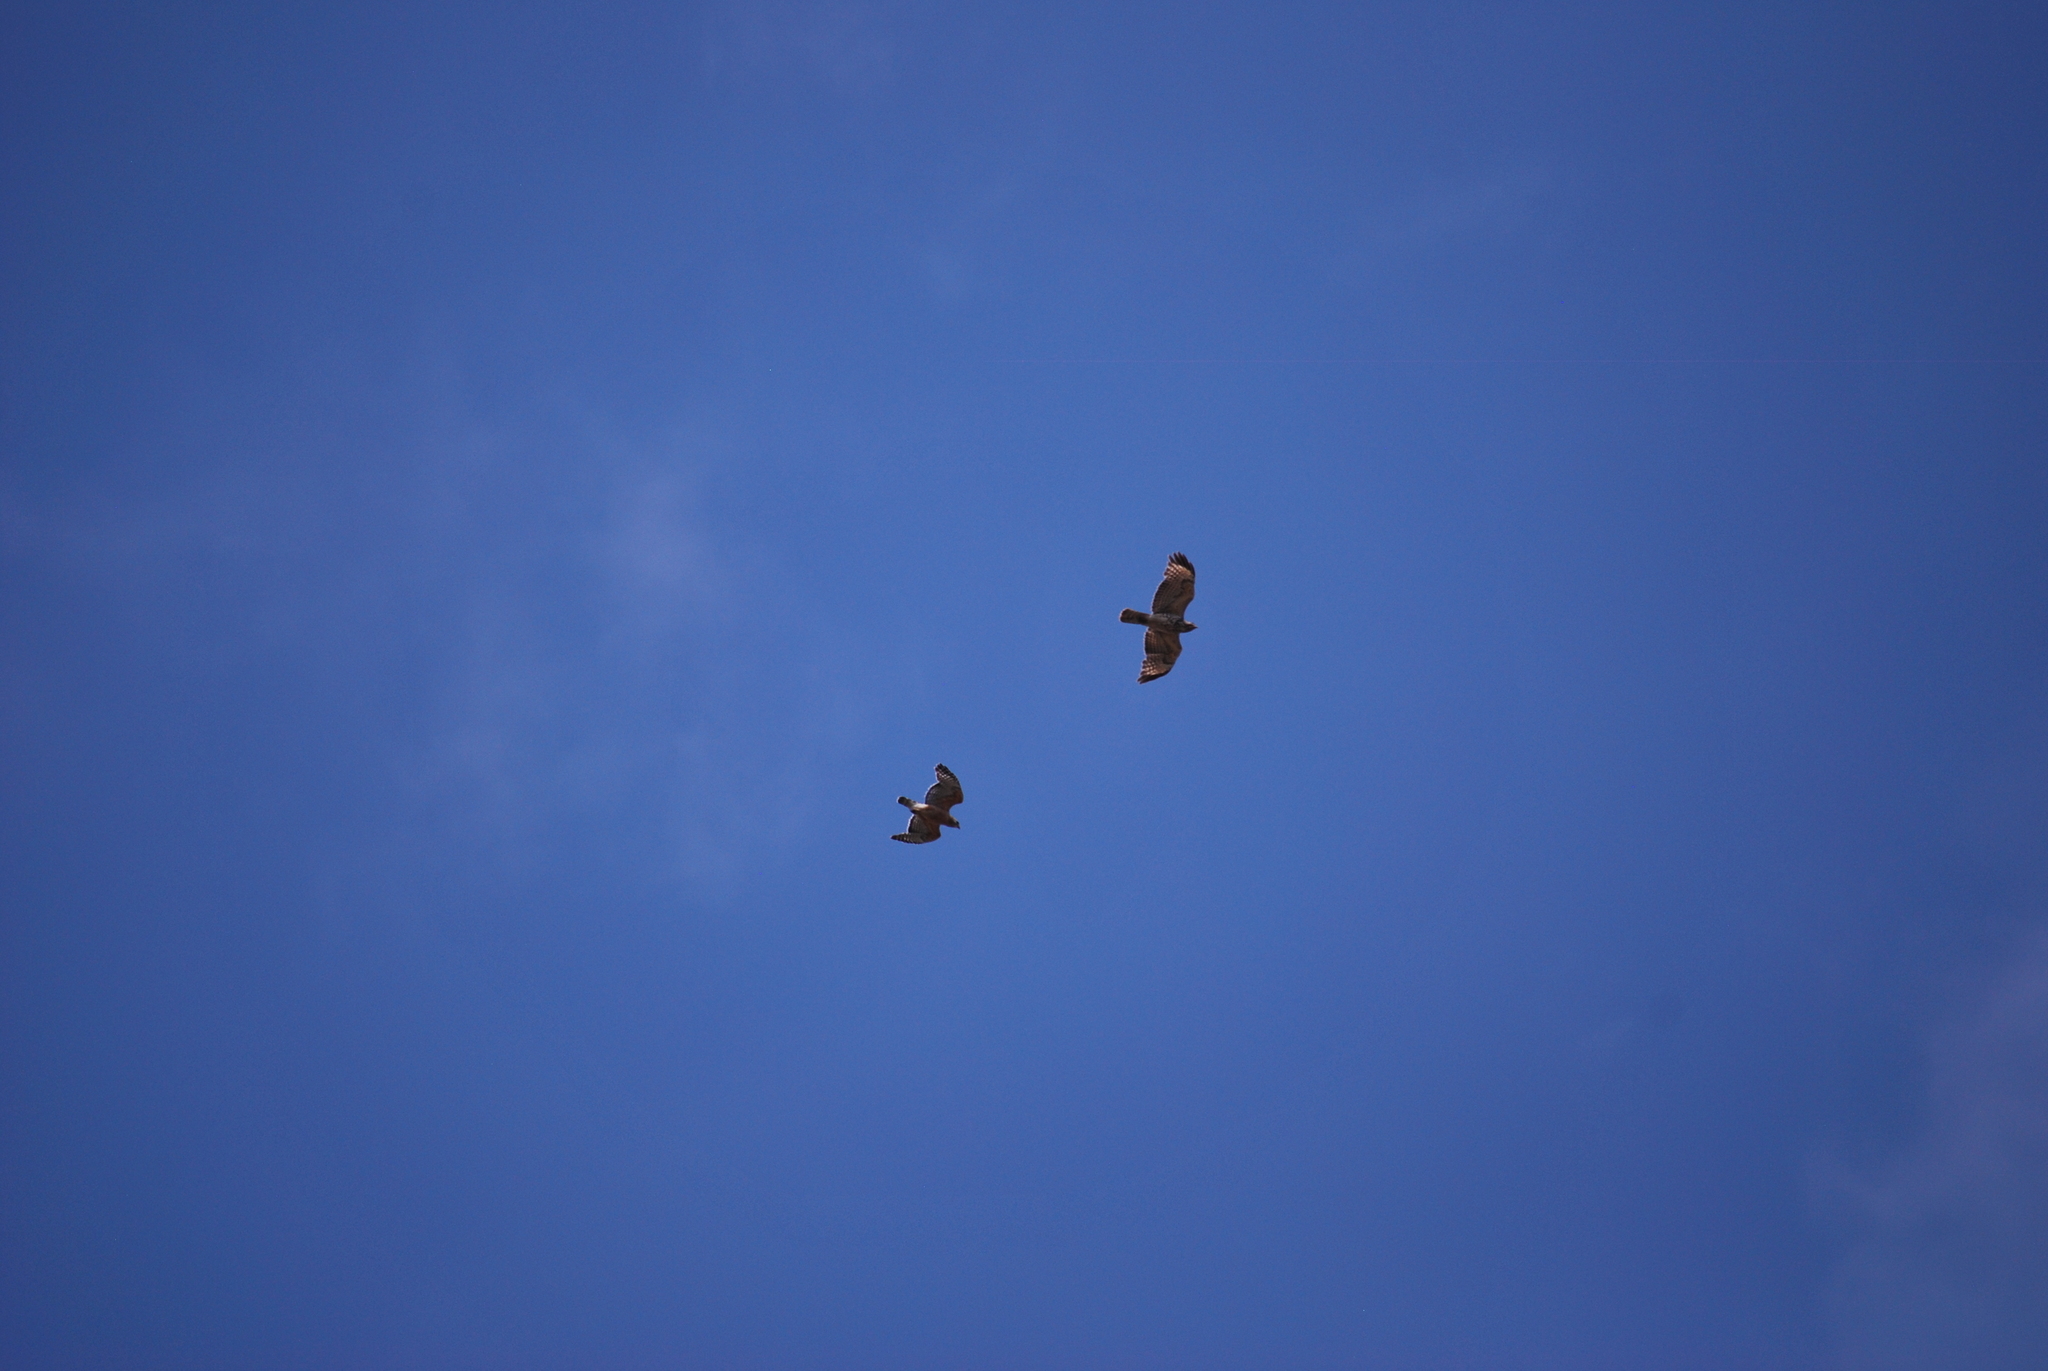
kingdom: Animalia
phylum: Chordata
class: Aves
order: Accipitriformes
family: Accipitridae
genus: Buteo
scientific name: Buteo lineatus
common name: Red-shouldered hawk
